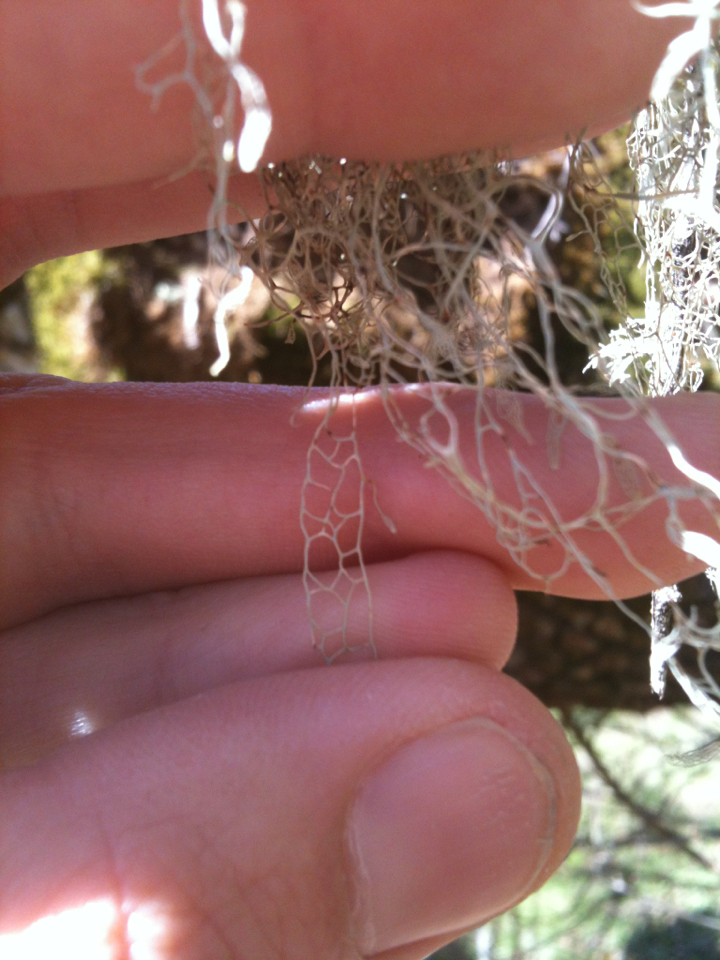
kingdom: Fungi
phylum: Ascomycota
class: Lecanoromycetes
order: Lecanorales
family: Ramalinaceae
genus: Ramalina
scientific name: Ramalina menziesii
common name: Lace lichen
